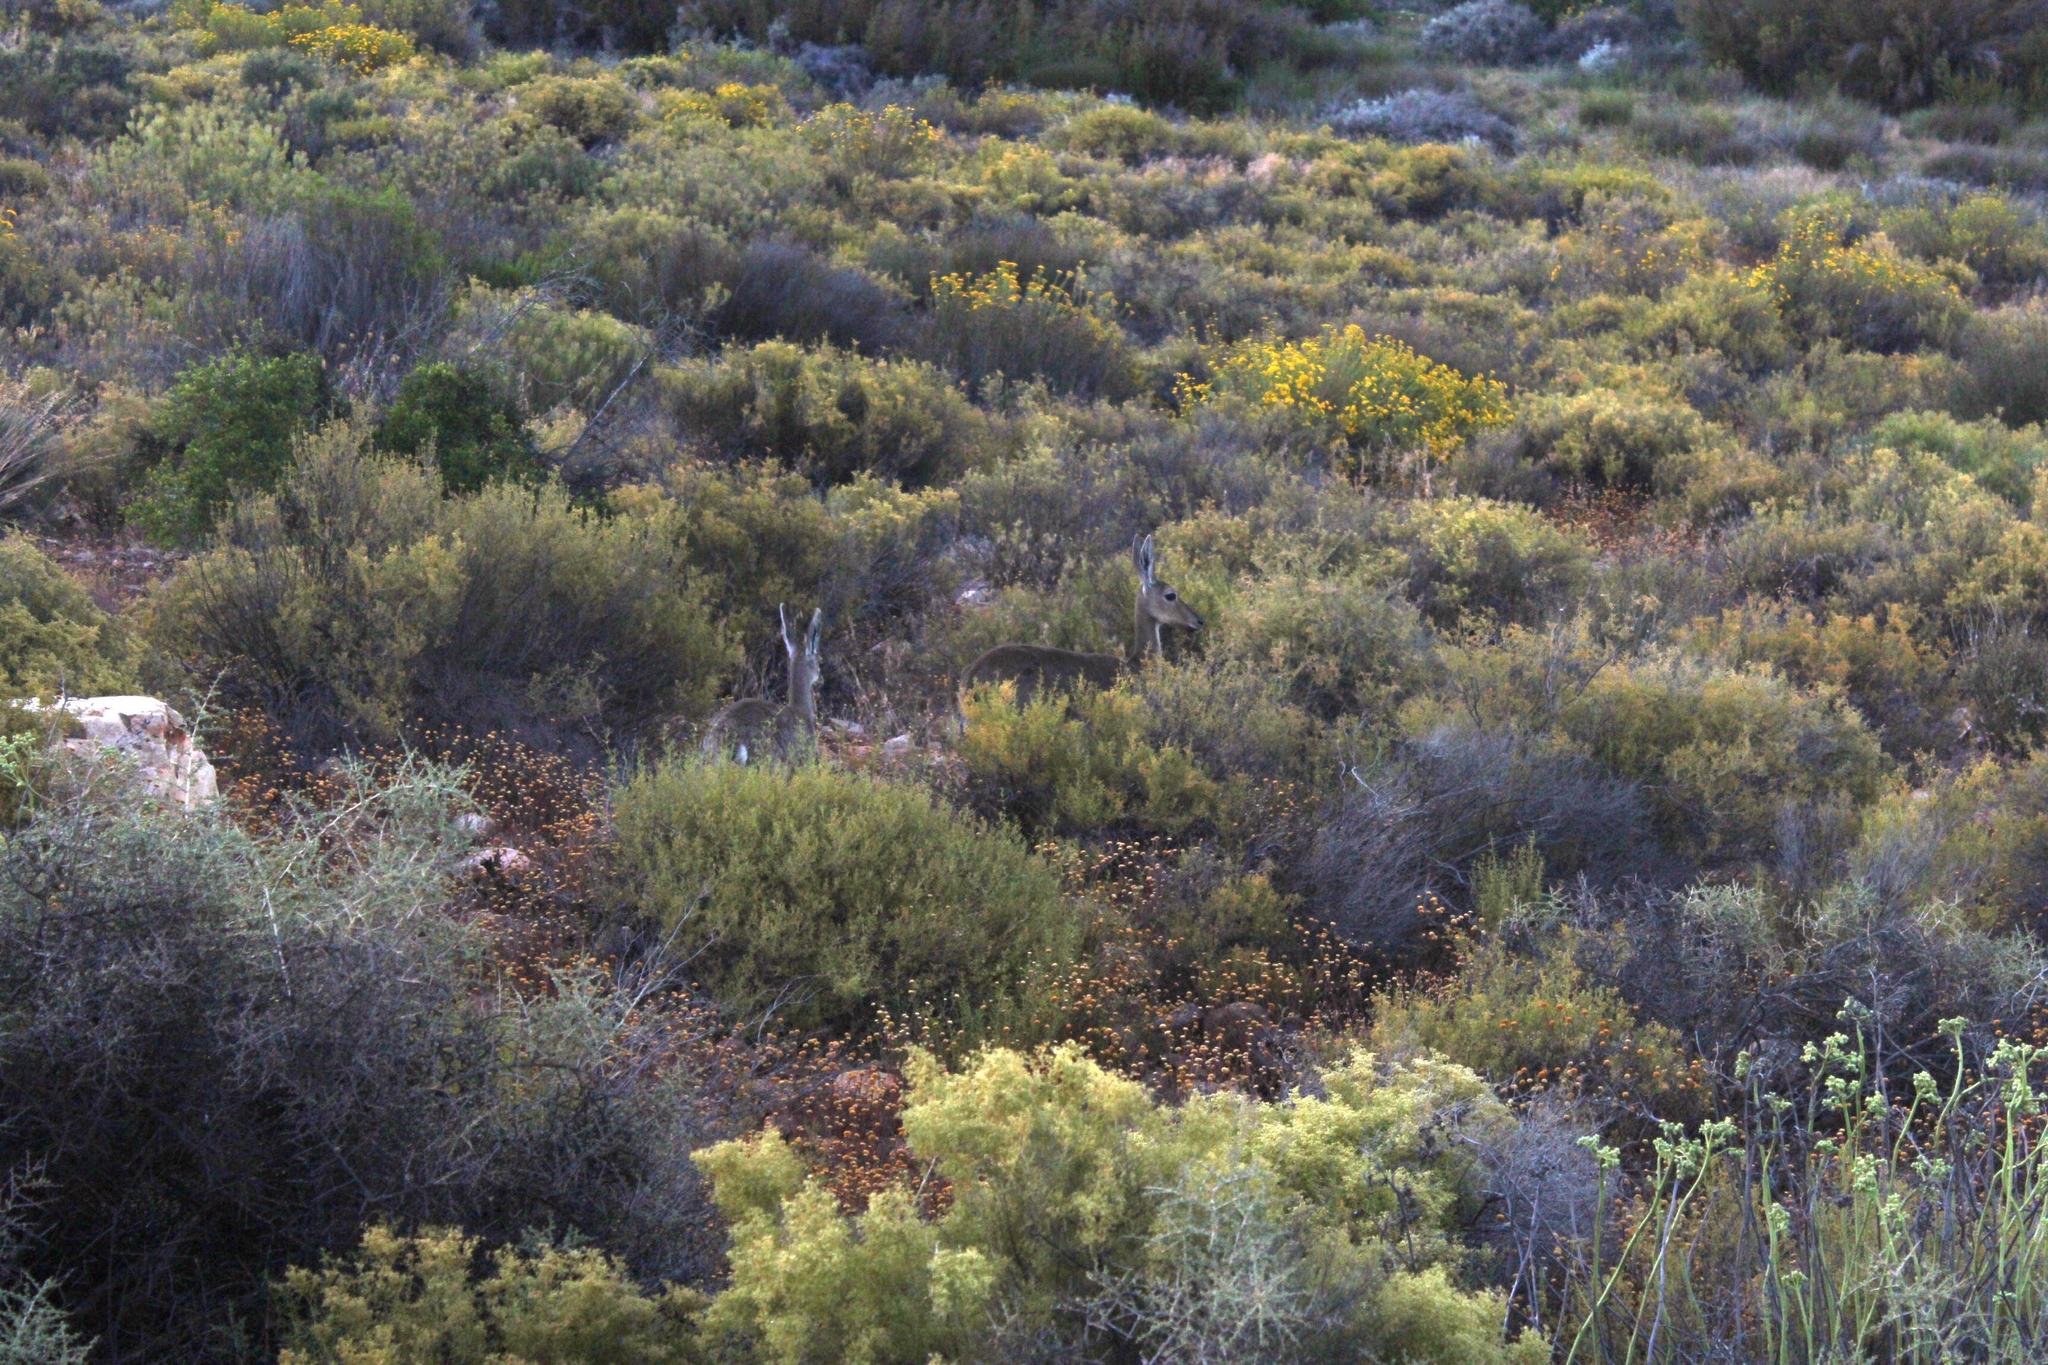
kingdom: Animalia
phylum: Chordata
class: Mammalia
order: Artiodactyla
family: Bovidae
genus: Pelea
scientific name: Pelea capreolus
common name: Common rhebok
